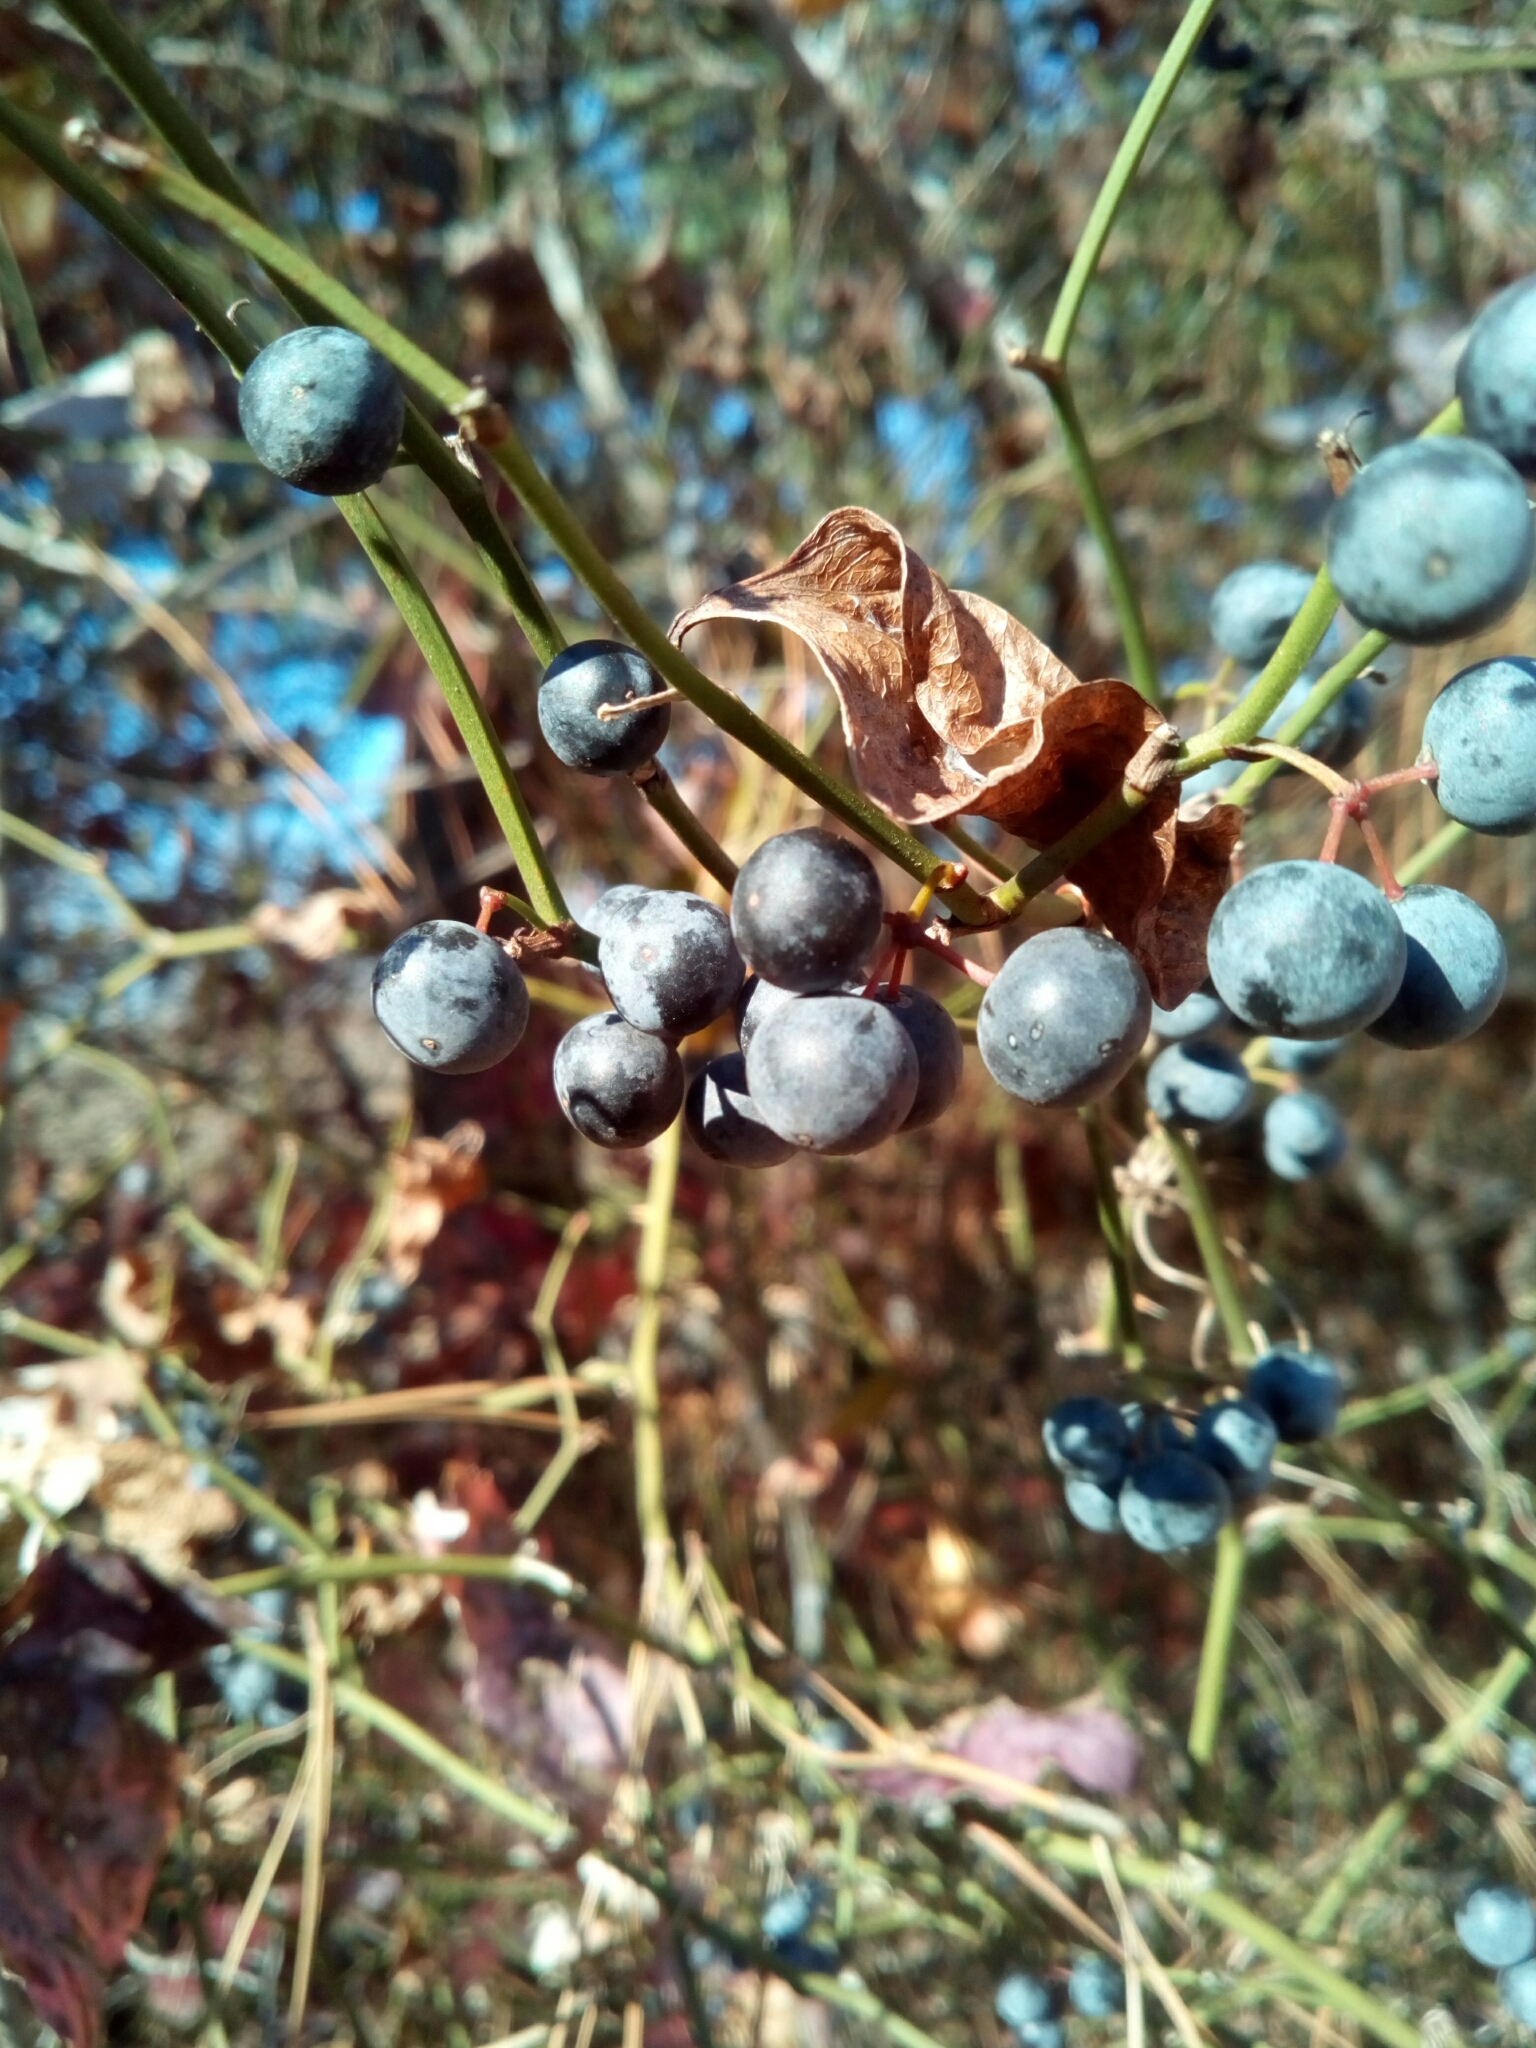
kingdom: Plantae
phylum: Tracheophyta
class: Liliopsida
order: Liliales
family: Smilacaceae
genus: Smilax
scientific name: Smilax rotundifolia
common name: Bullbriar
